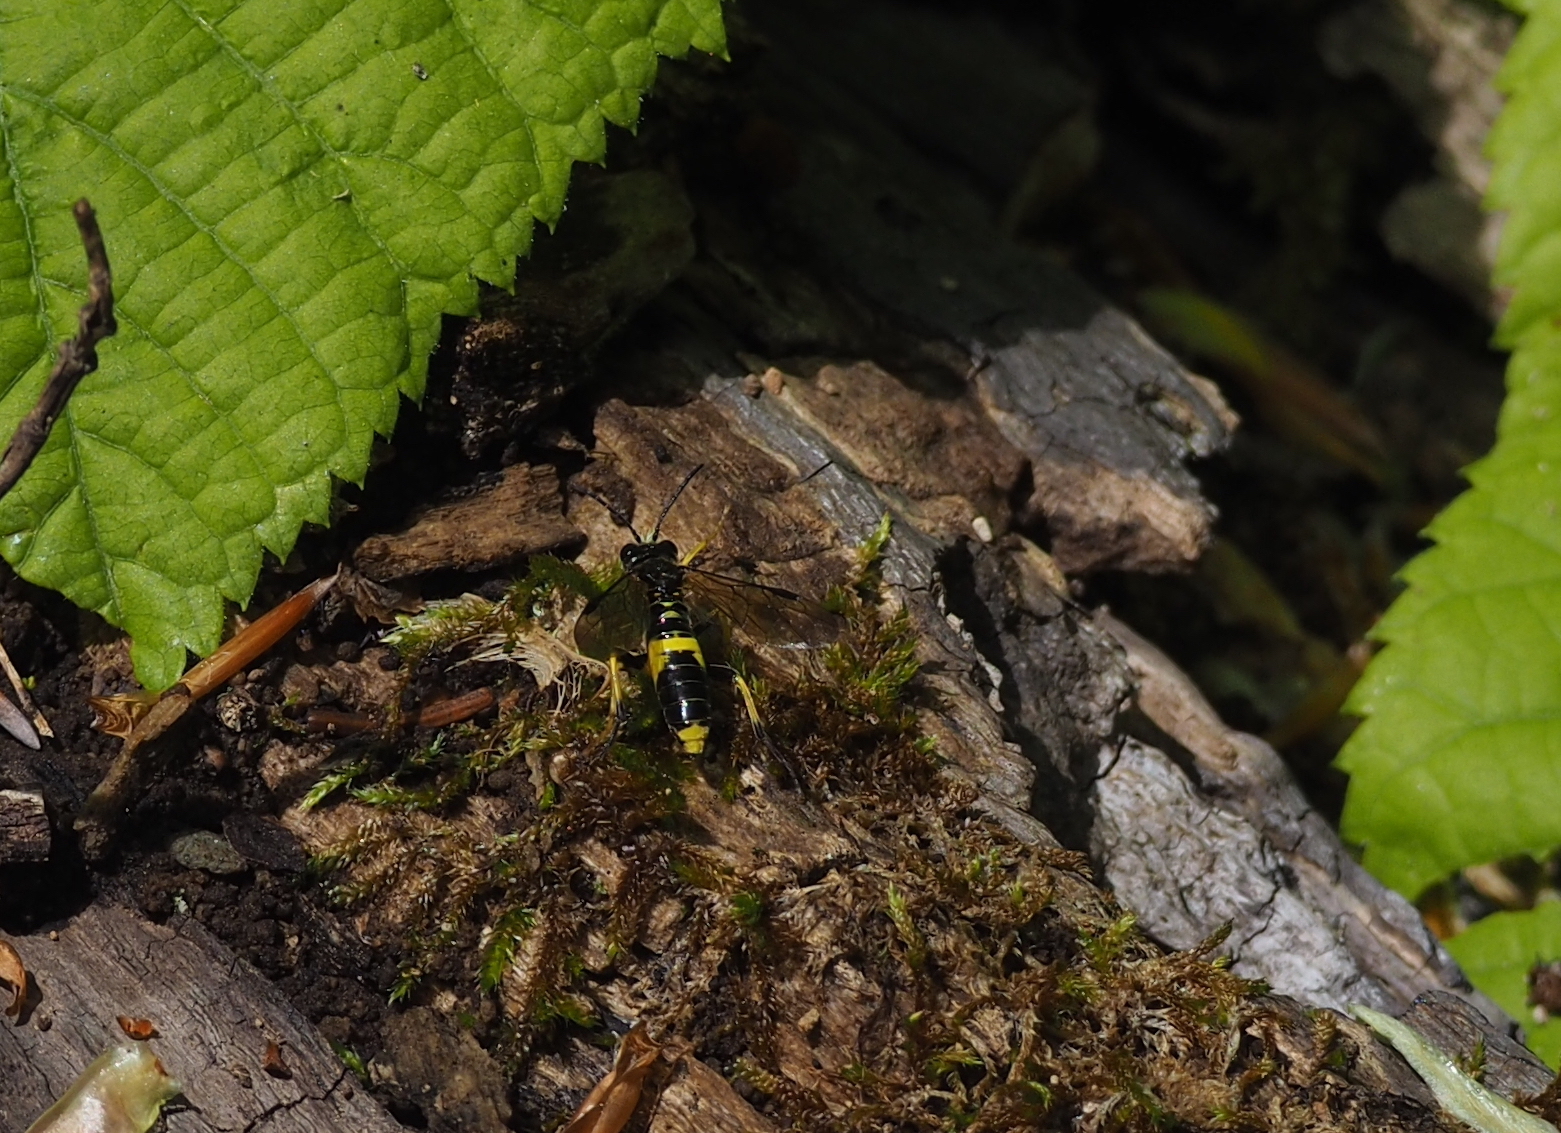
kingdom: Animalia
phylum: Arthropoda
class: Insecta
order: Hymenoptera
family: Tenthredinidae
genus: Tenthredo
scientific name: Tenthredo temula
